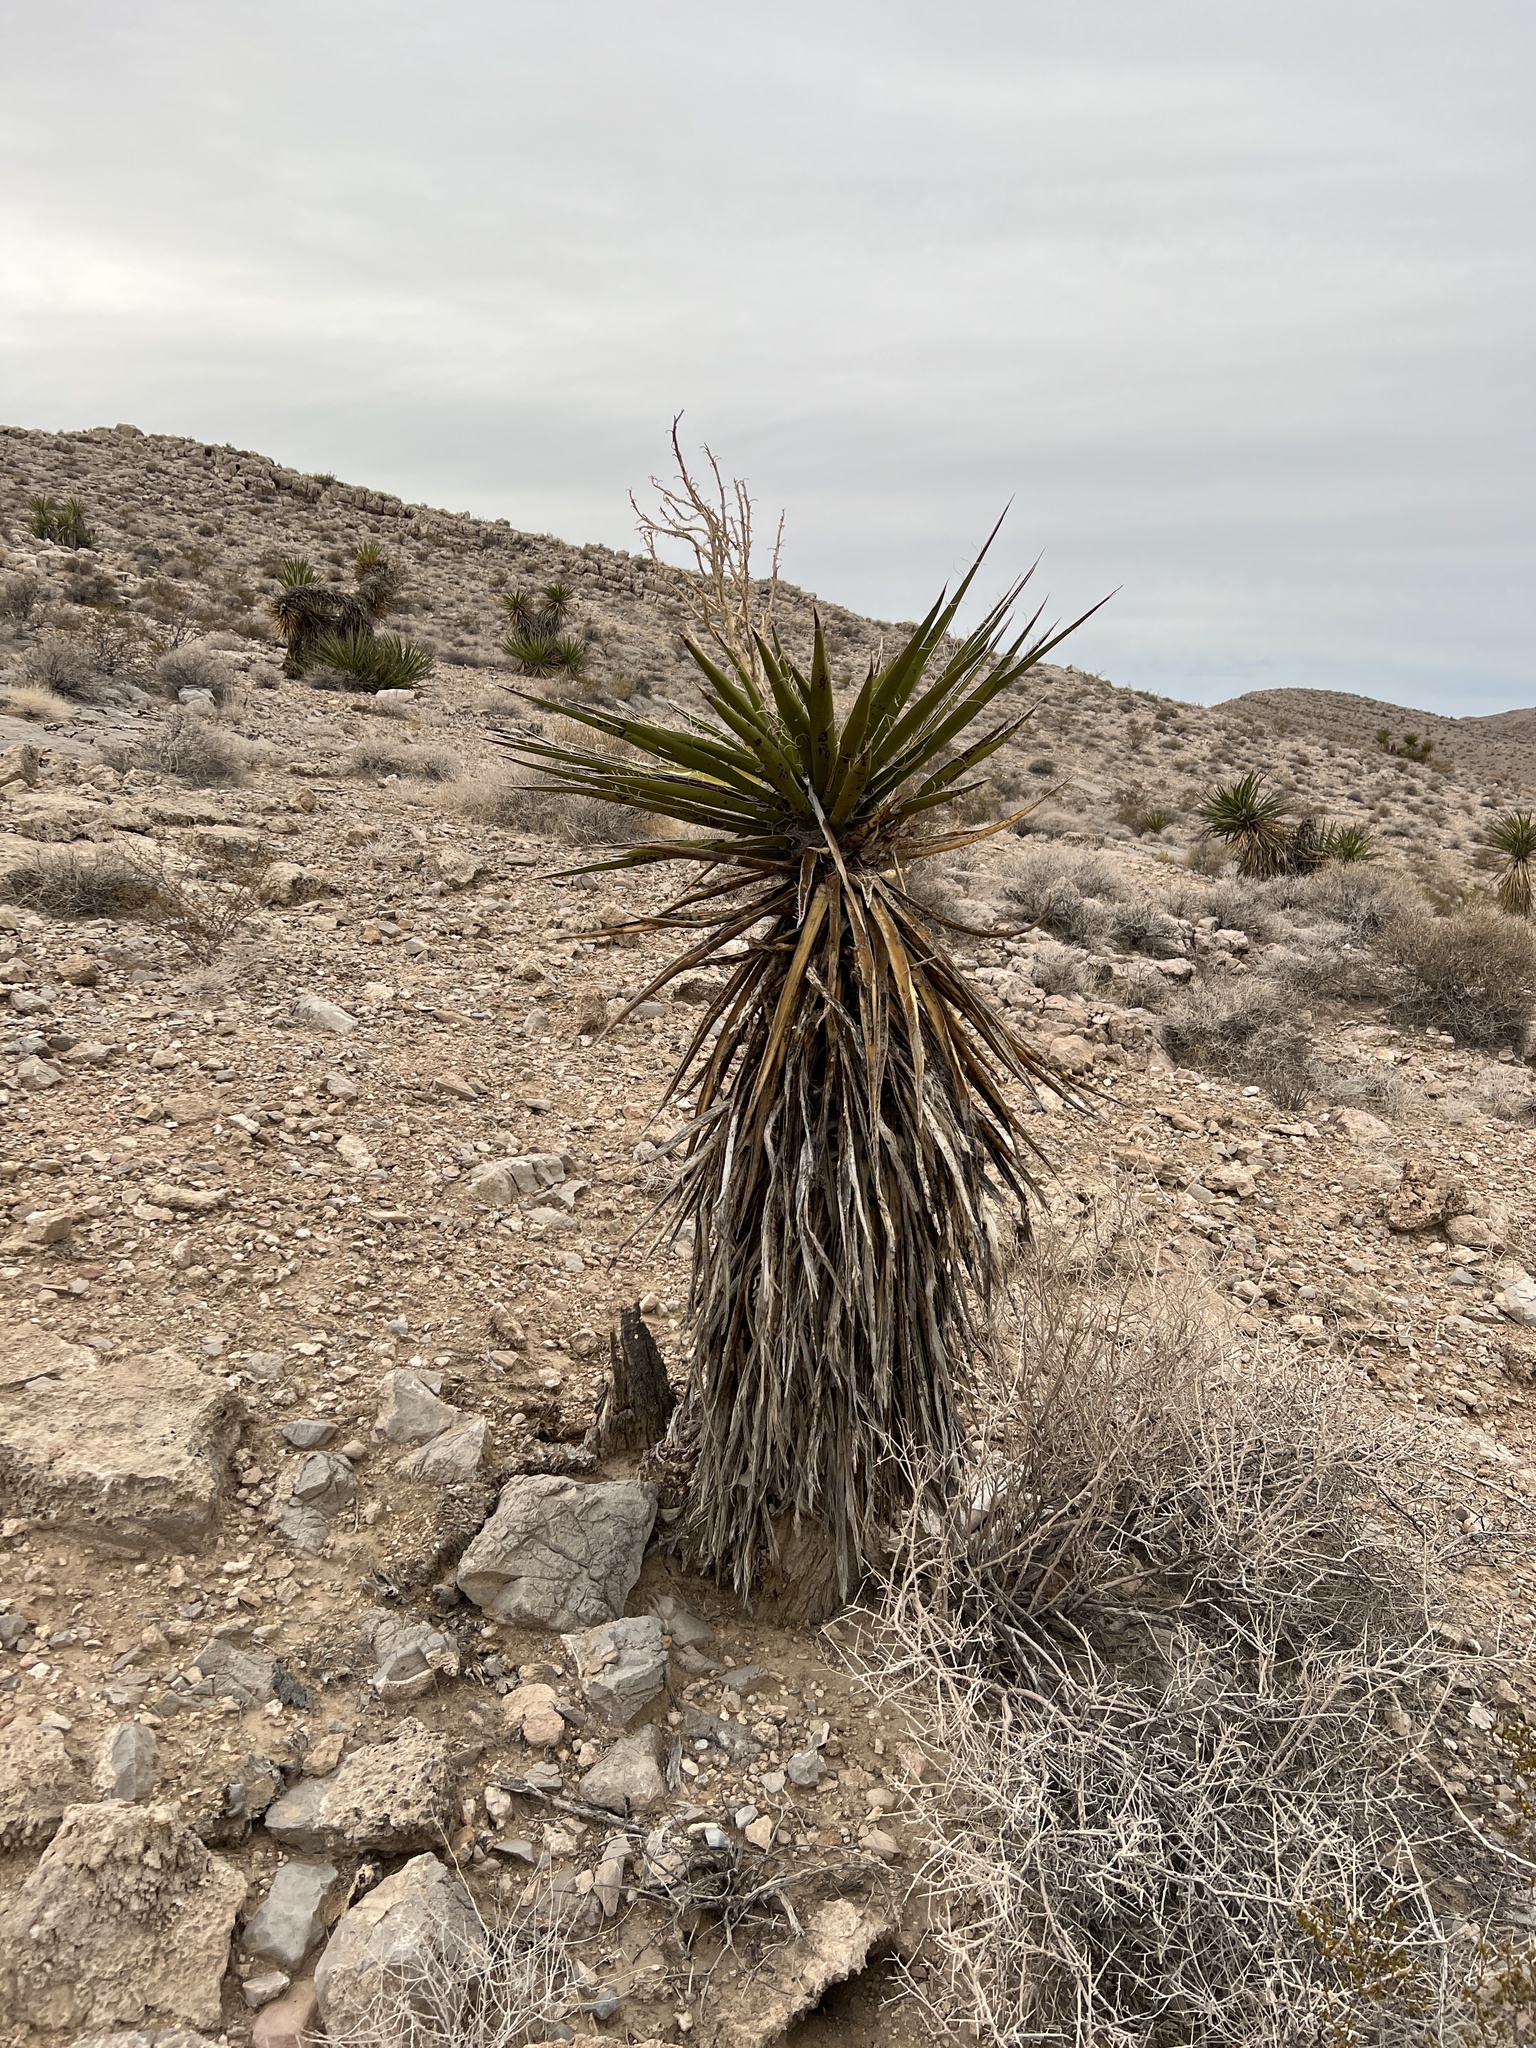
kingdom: Plantae
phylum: Tracheophyta
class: Liliopsida
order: Asparagales
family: Asparagaceae
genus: Yucca
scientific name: Yucca schidigera
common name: Mojave yucca
